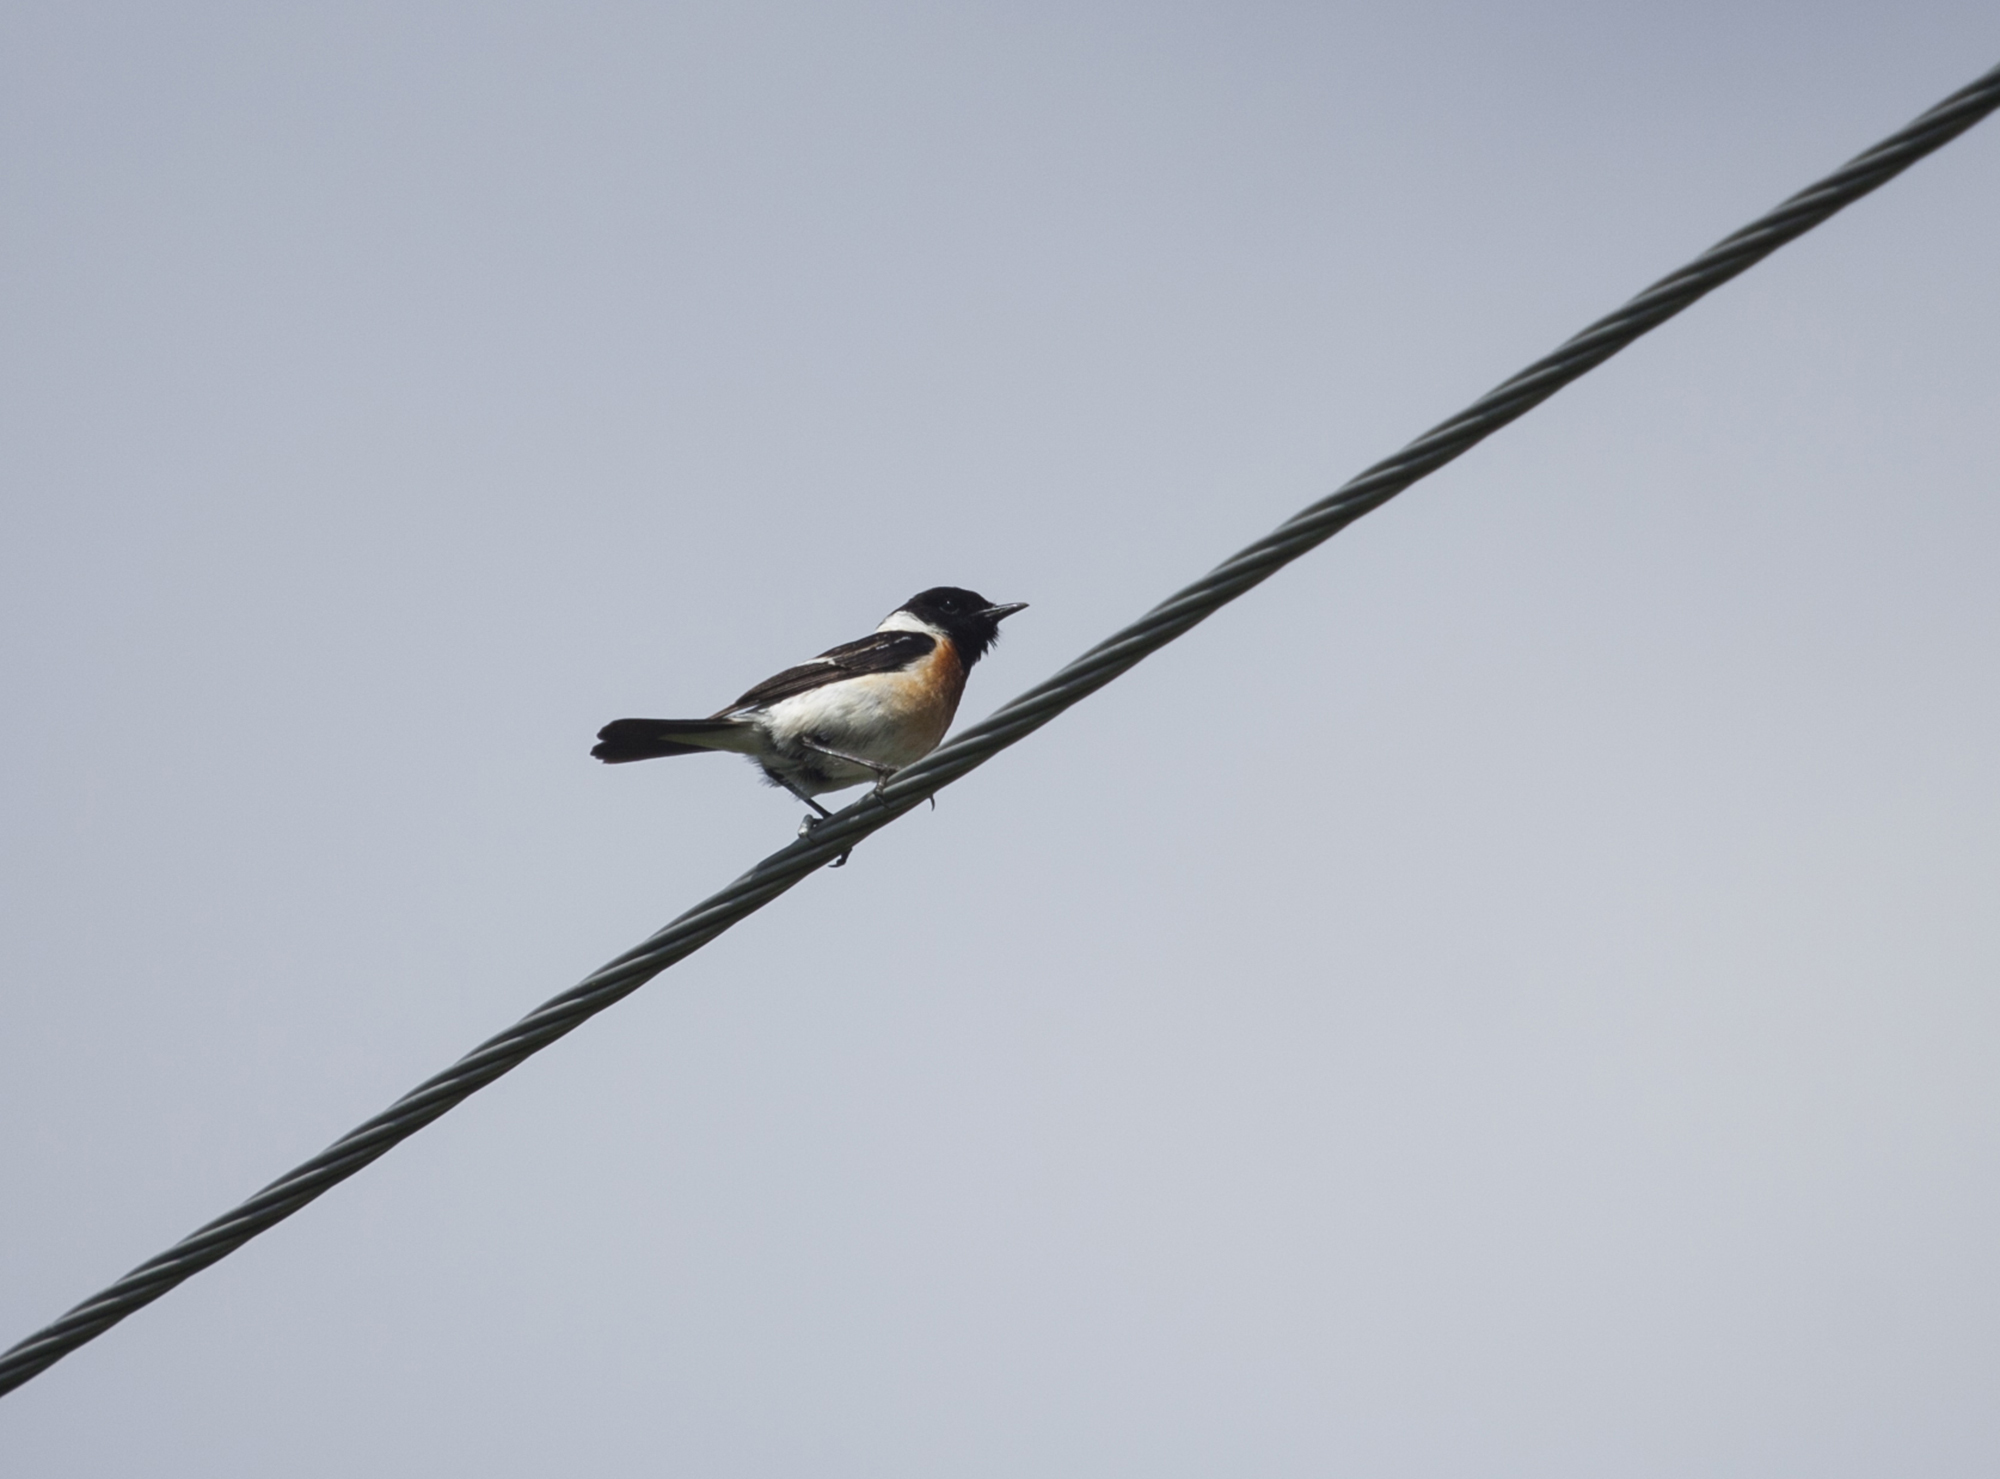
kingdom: Animalia
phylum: Chordata
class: Aves
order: Passeriformes
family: Muscicapidae
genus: Saxicola
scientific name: Saxicola maurus
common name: Siberian stonechat
